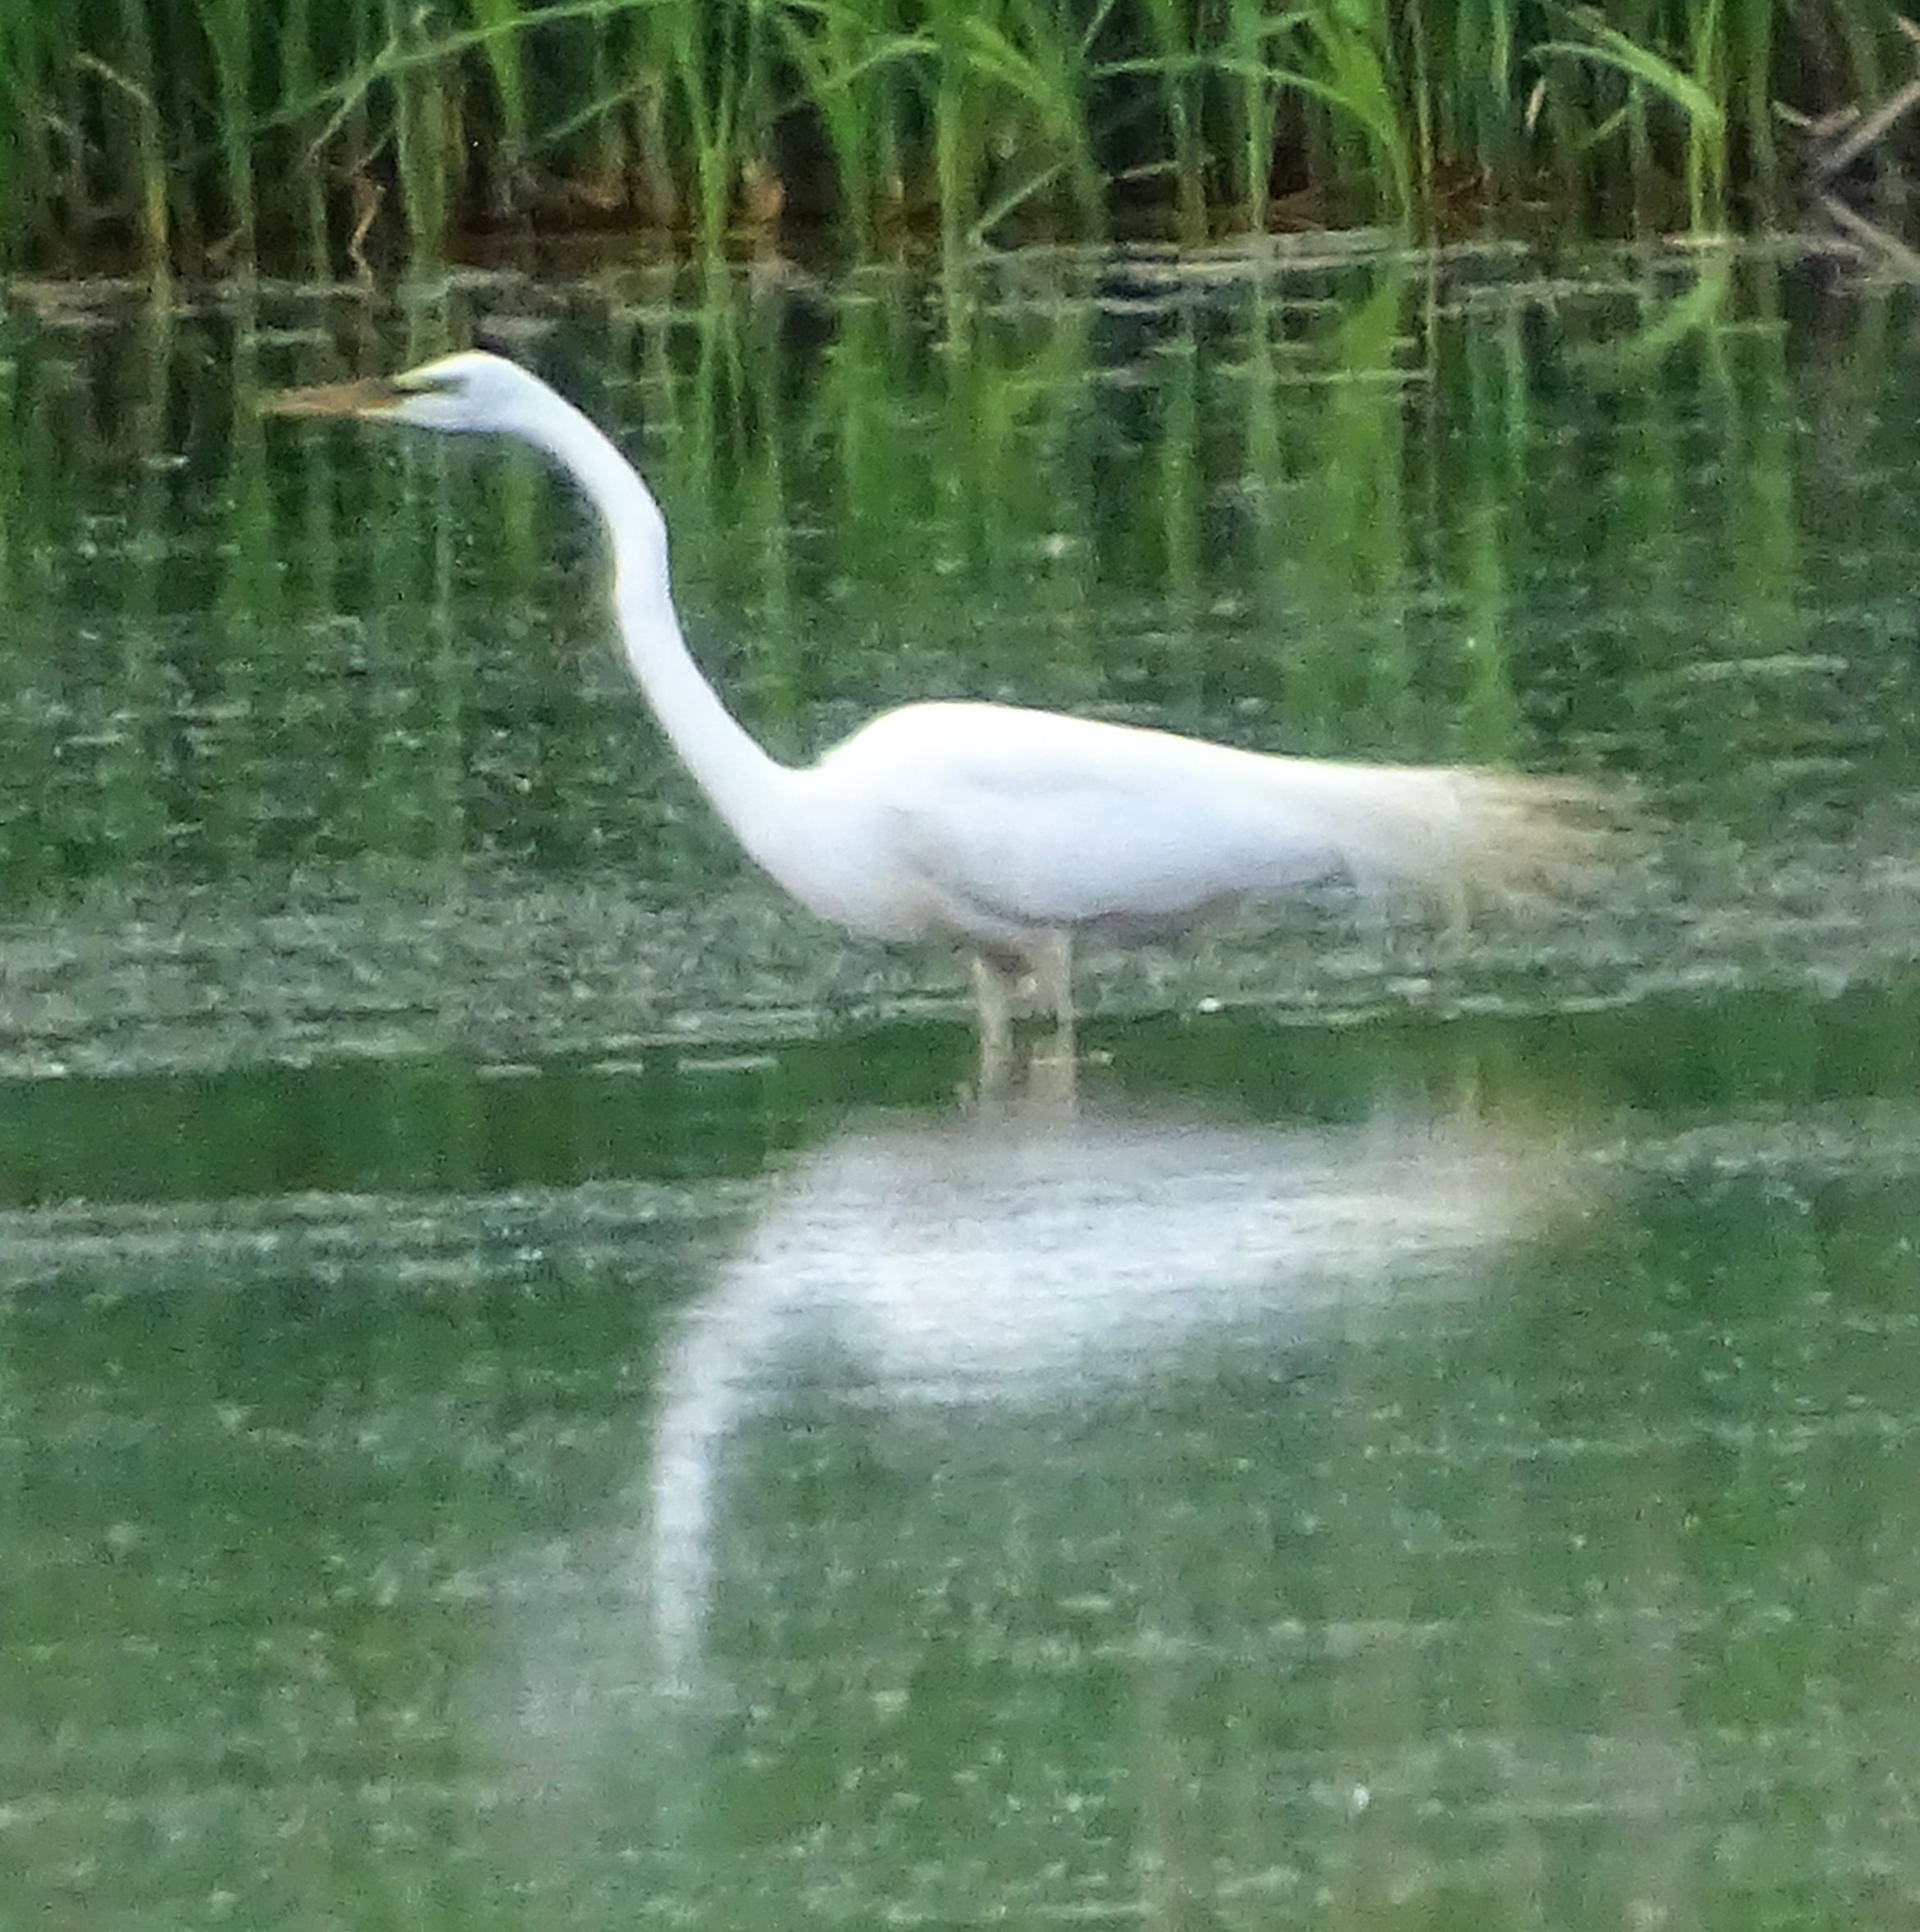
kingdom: Animalia
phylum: Chordata
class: Aves
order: Pelecaniformes
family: Ardeidae
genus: Ardea
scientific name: Ardea alba
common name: Great egret
